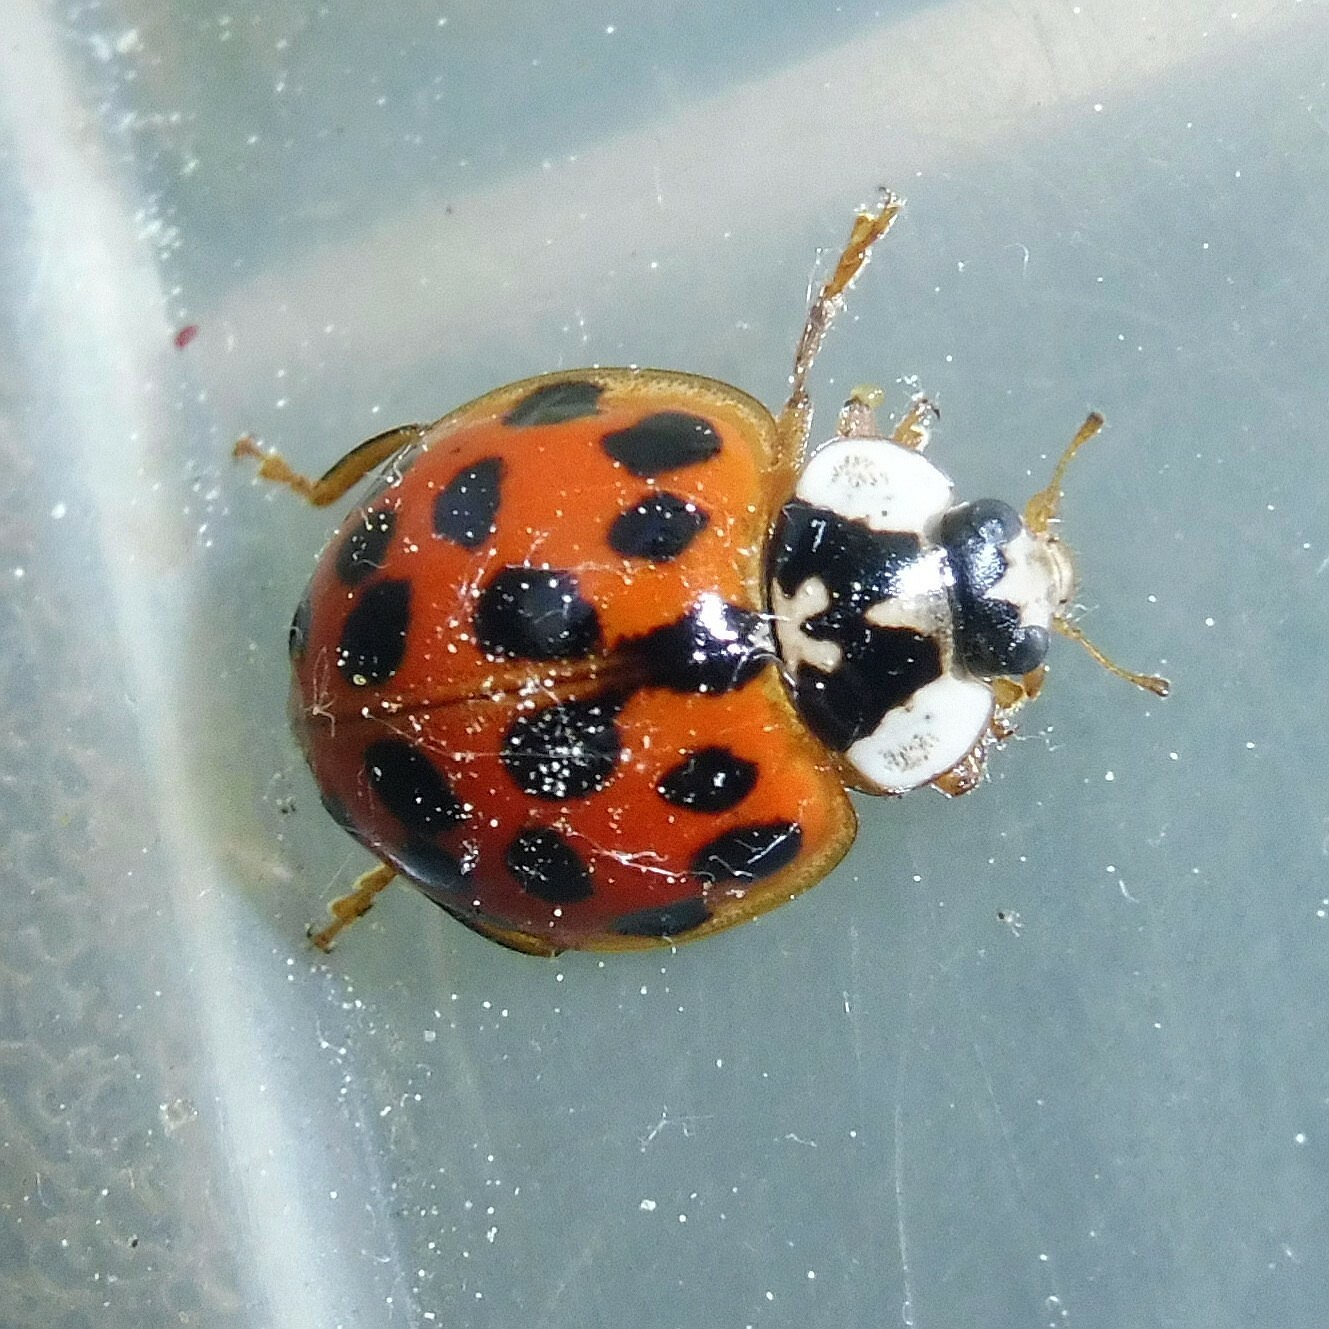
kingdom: Animalia
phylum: Arthropoda
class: Insecta
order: Coleoptera
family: Coccinellidae
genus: Harmonia
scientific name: Harmonia axyridis
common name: Harlequin ladybird
